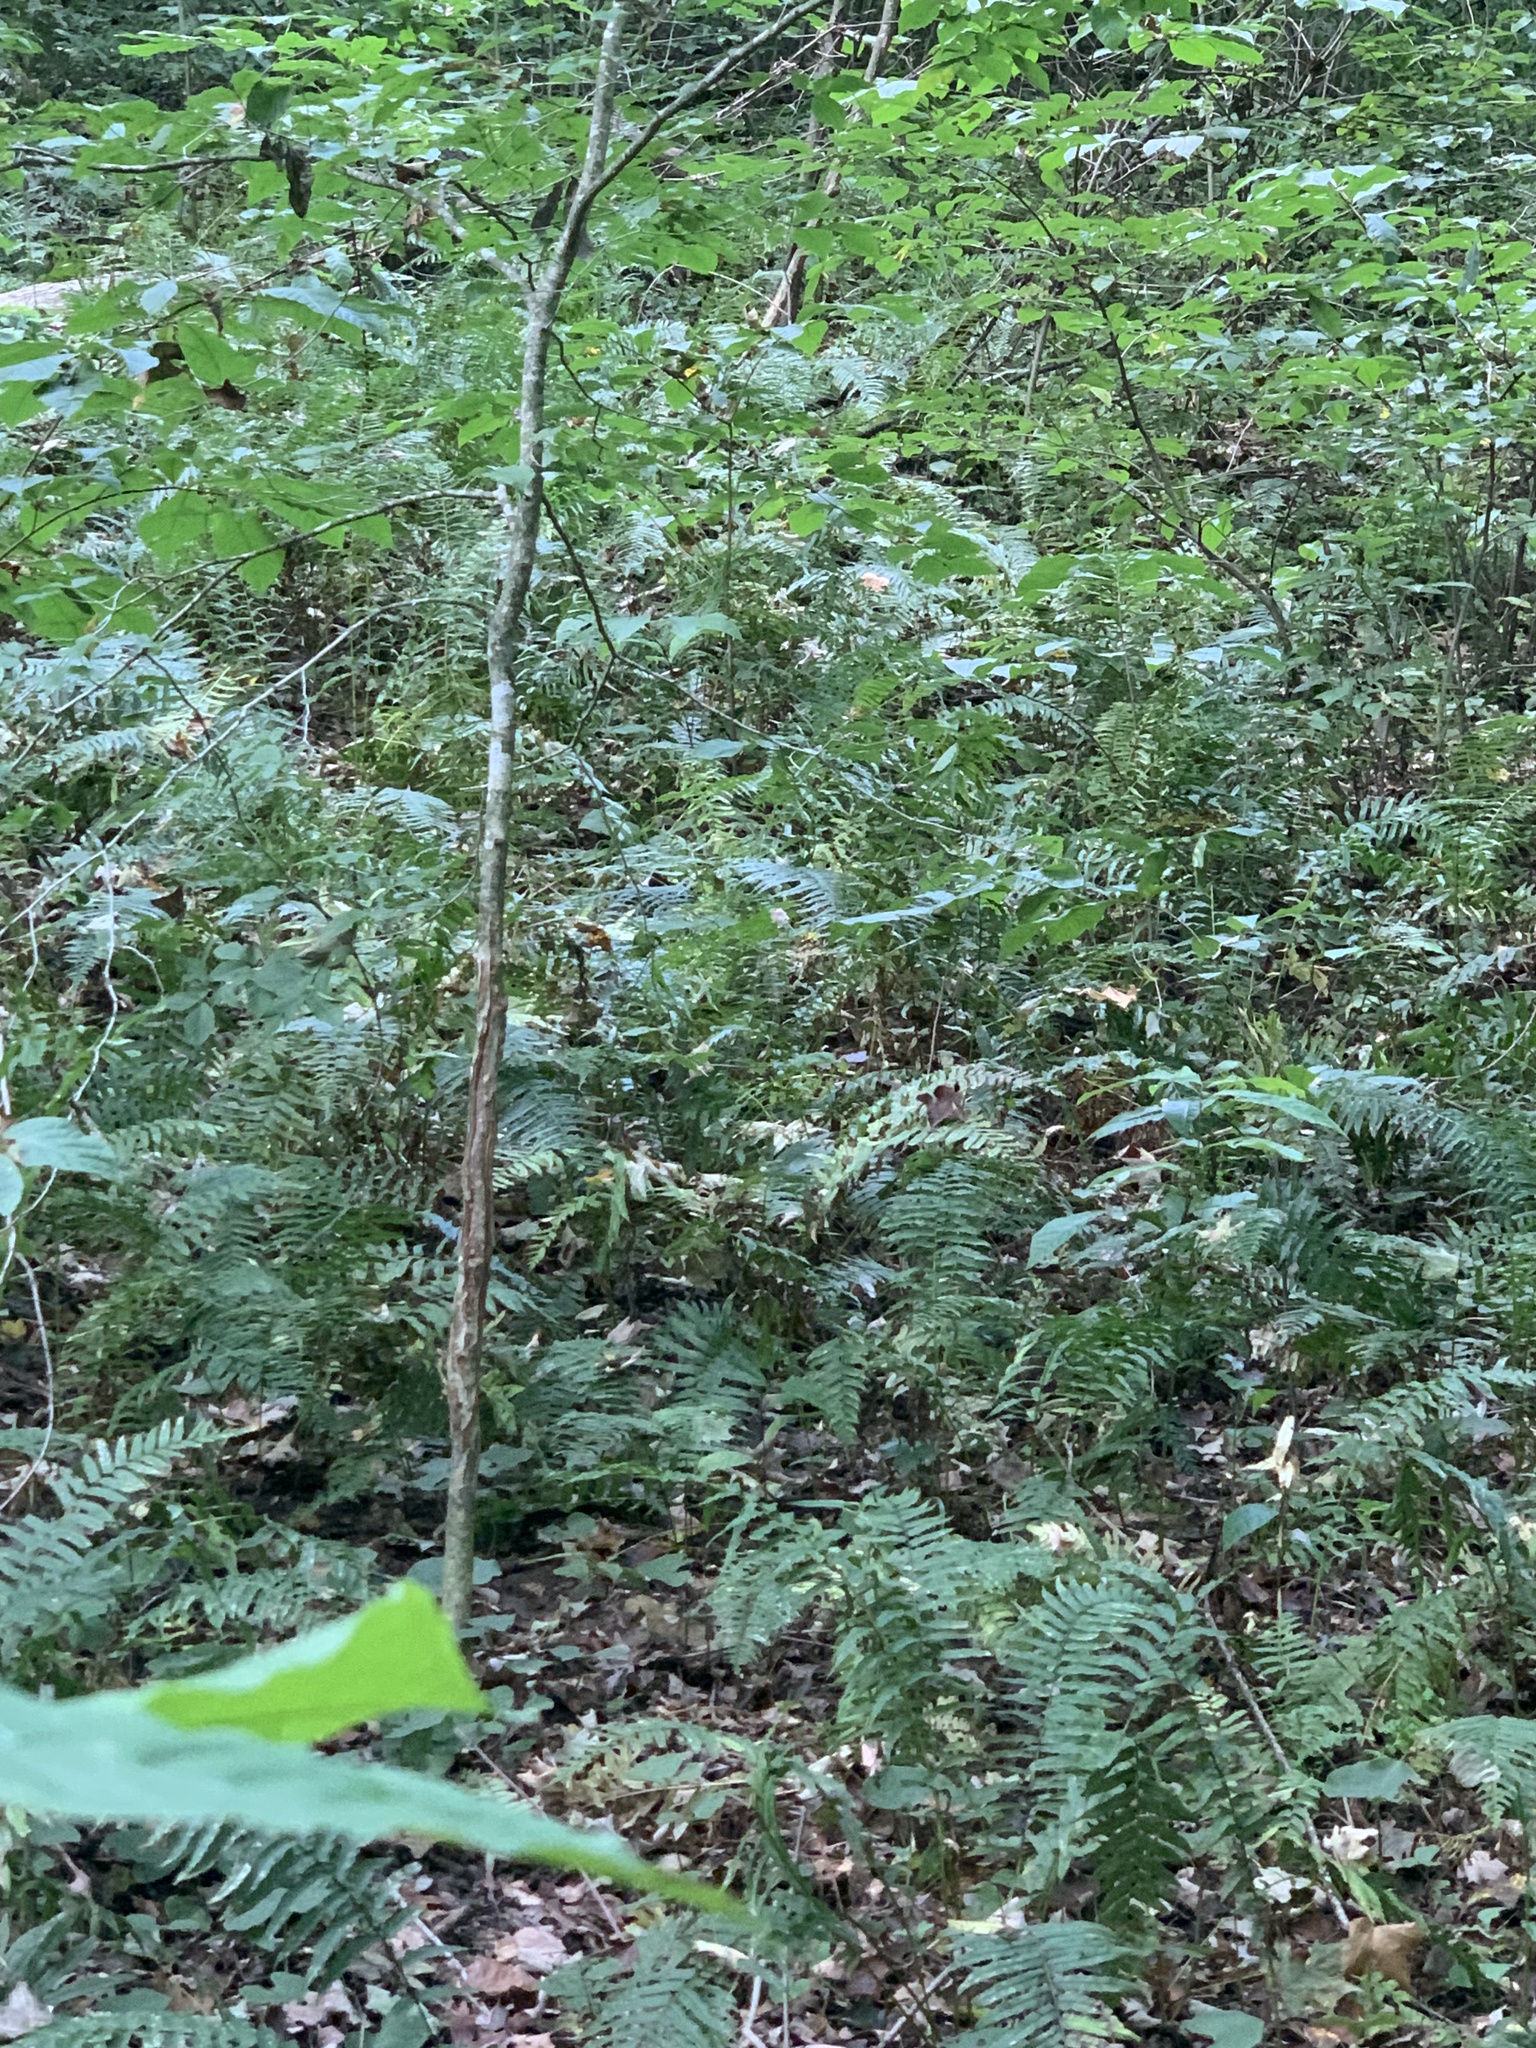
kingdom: Plantae
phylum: Tracheophyta
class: Polypodiopsida
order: Polypodiales
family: Diplaziopsidaceae
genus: Homalosorus
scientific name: Homalosorus pycnocarpos
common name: Glade fern
